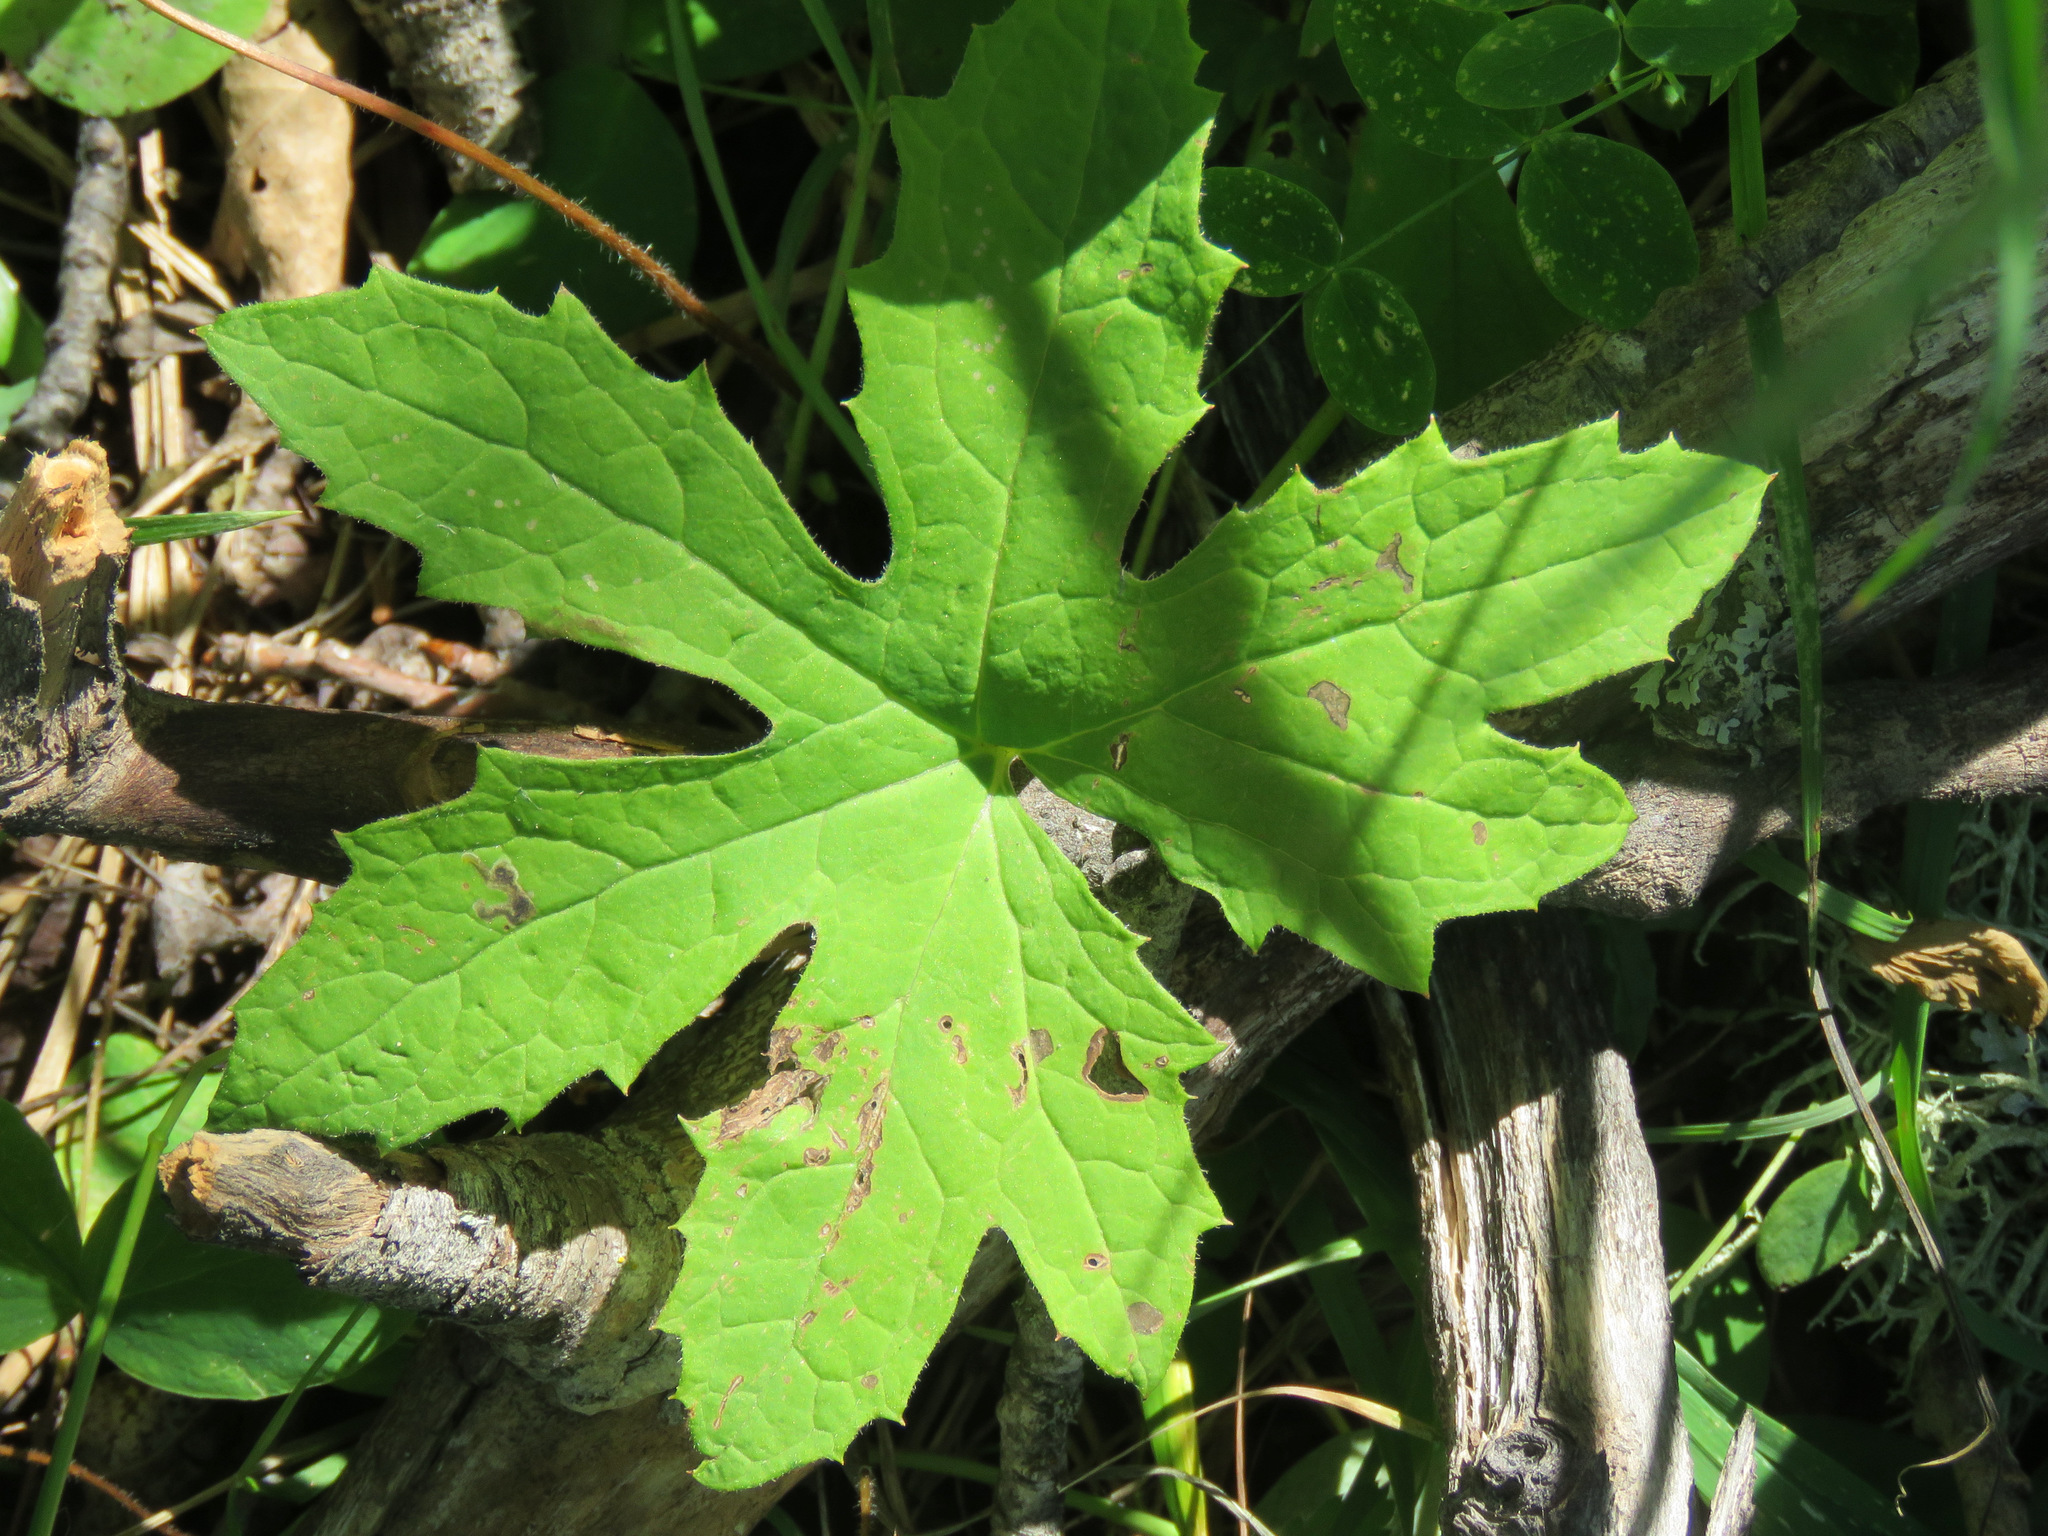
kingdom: Plantae
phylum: Tracheophyta
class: Magnoliopsida
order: Asterales
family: Asteraceae
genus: Petasites
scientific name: Petasites frigidus
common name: Arctic butterbur
